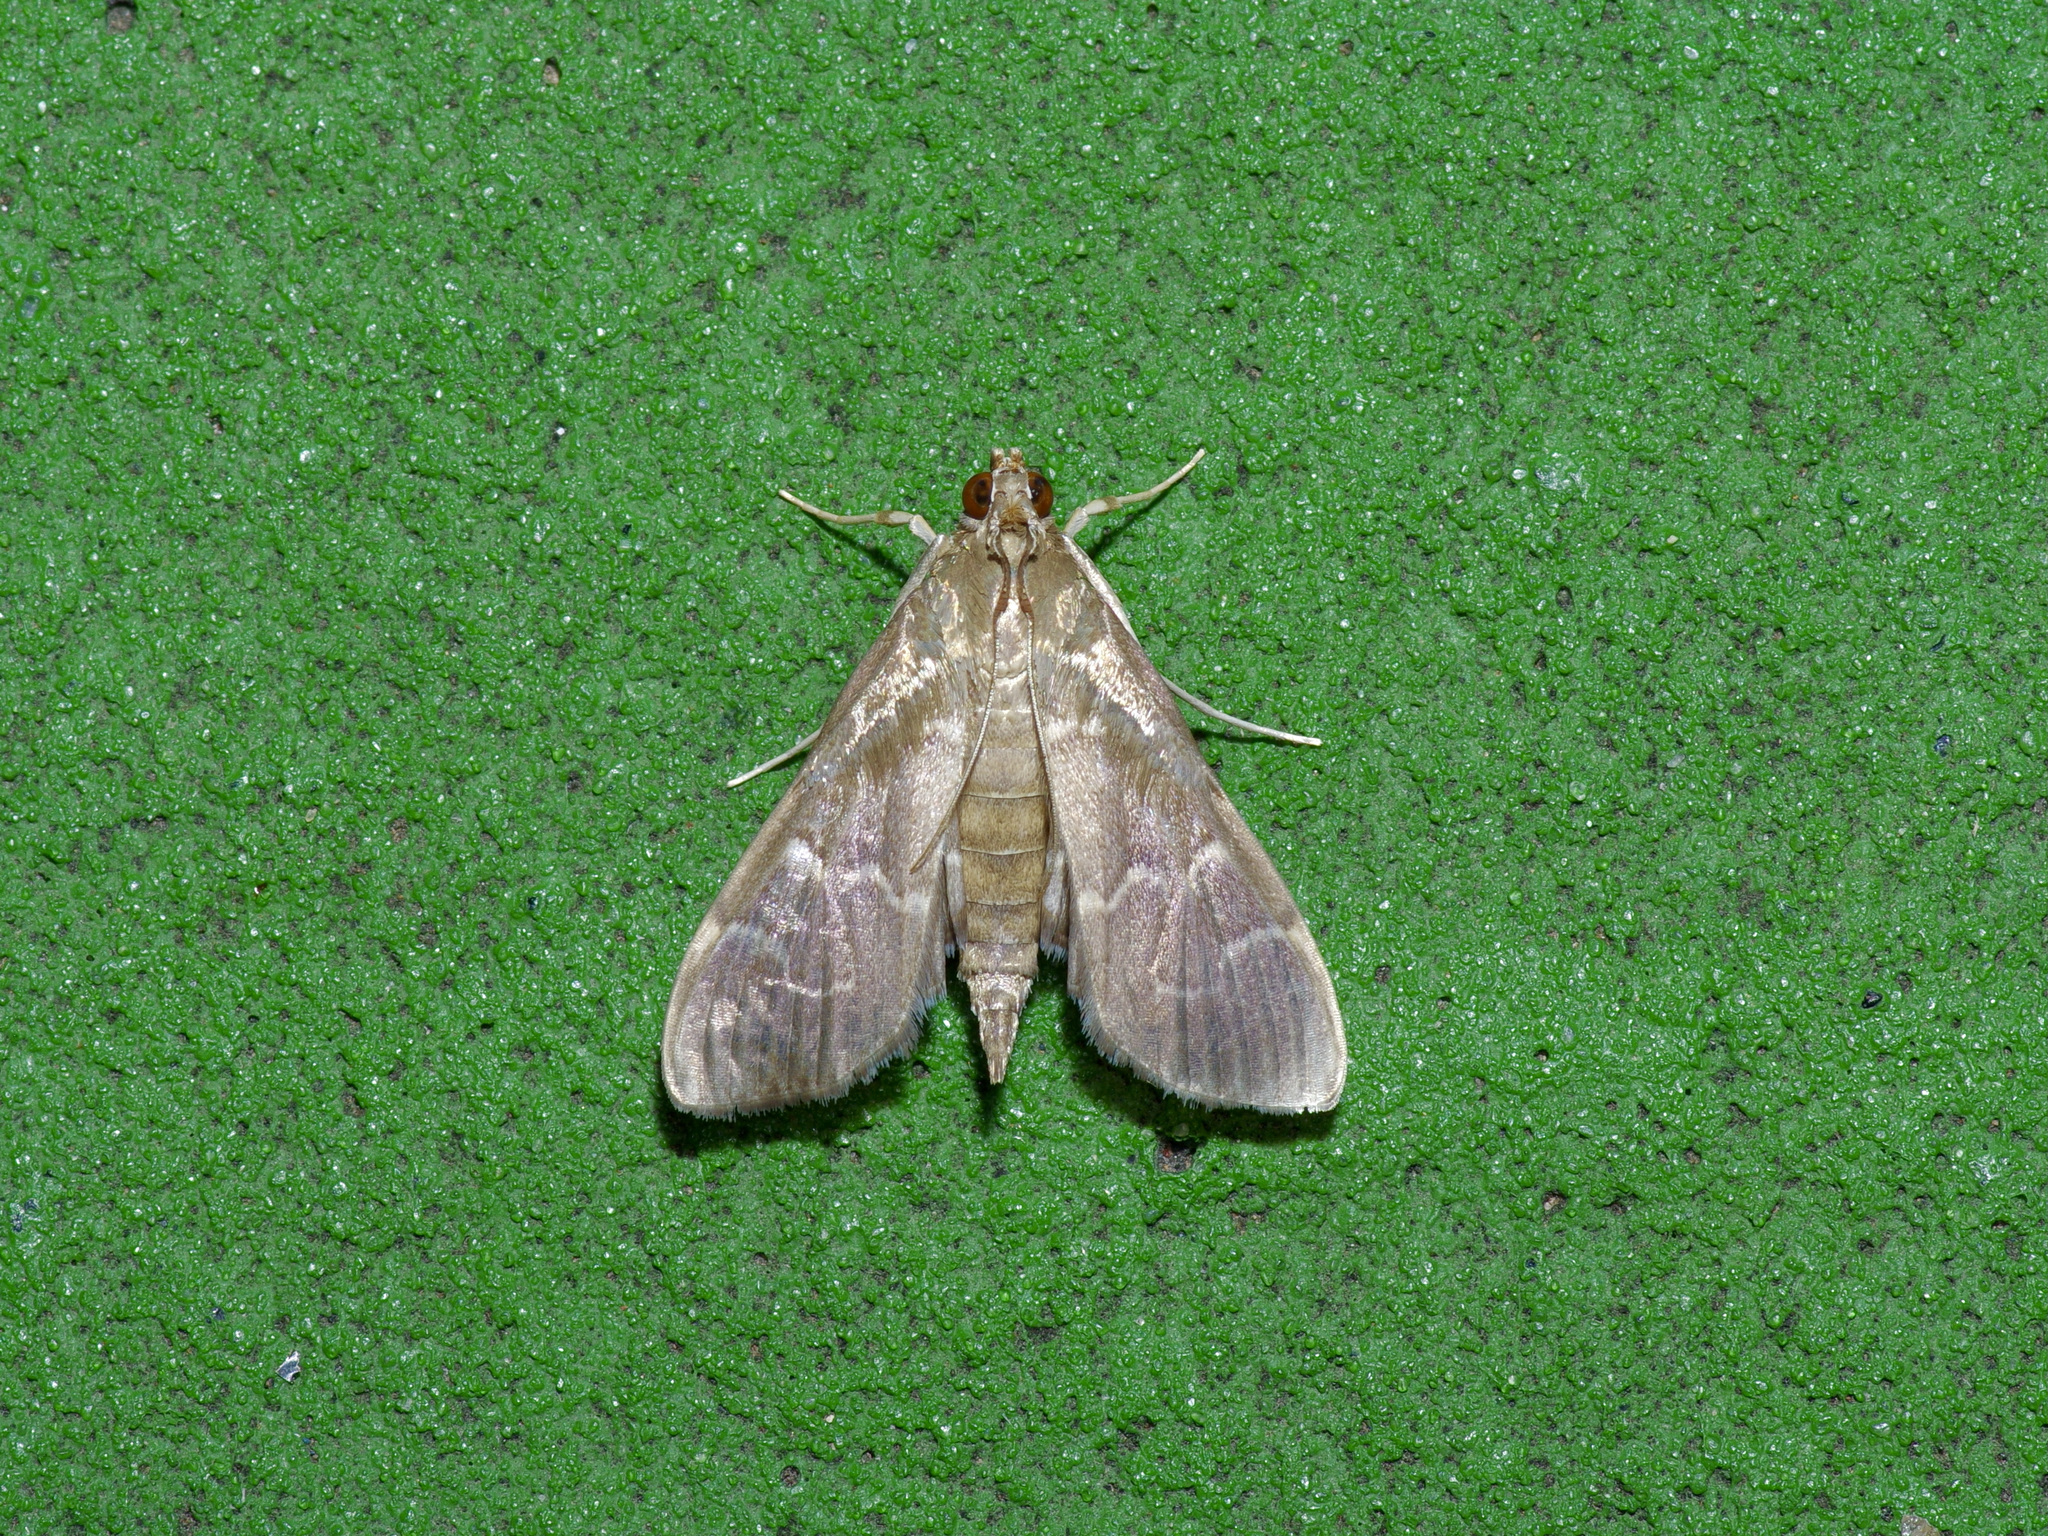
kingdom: Animalia
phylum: Arthropoda
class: Insecta
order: Lepidoptera
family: Crambidae
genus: Pilocrocis
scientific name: Pilocrocis ramentalis
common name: Scraped pilocrocis
